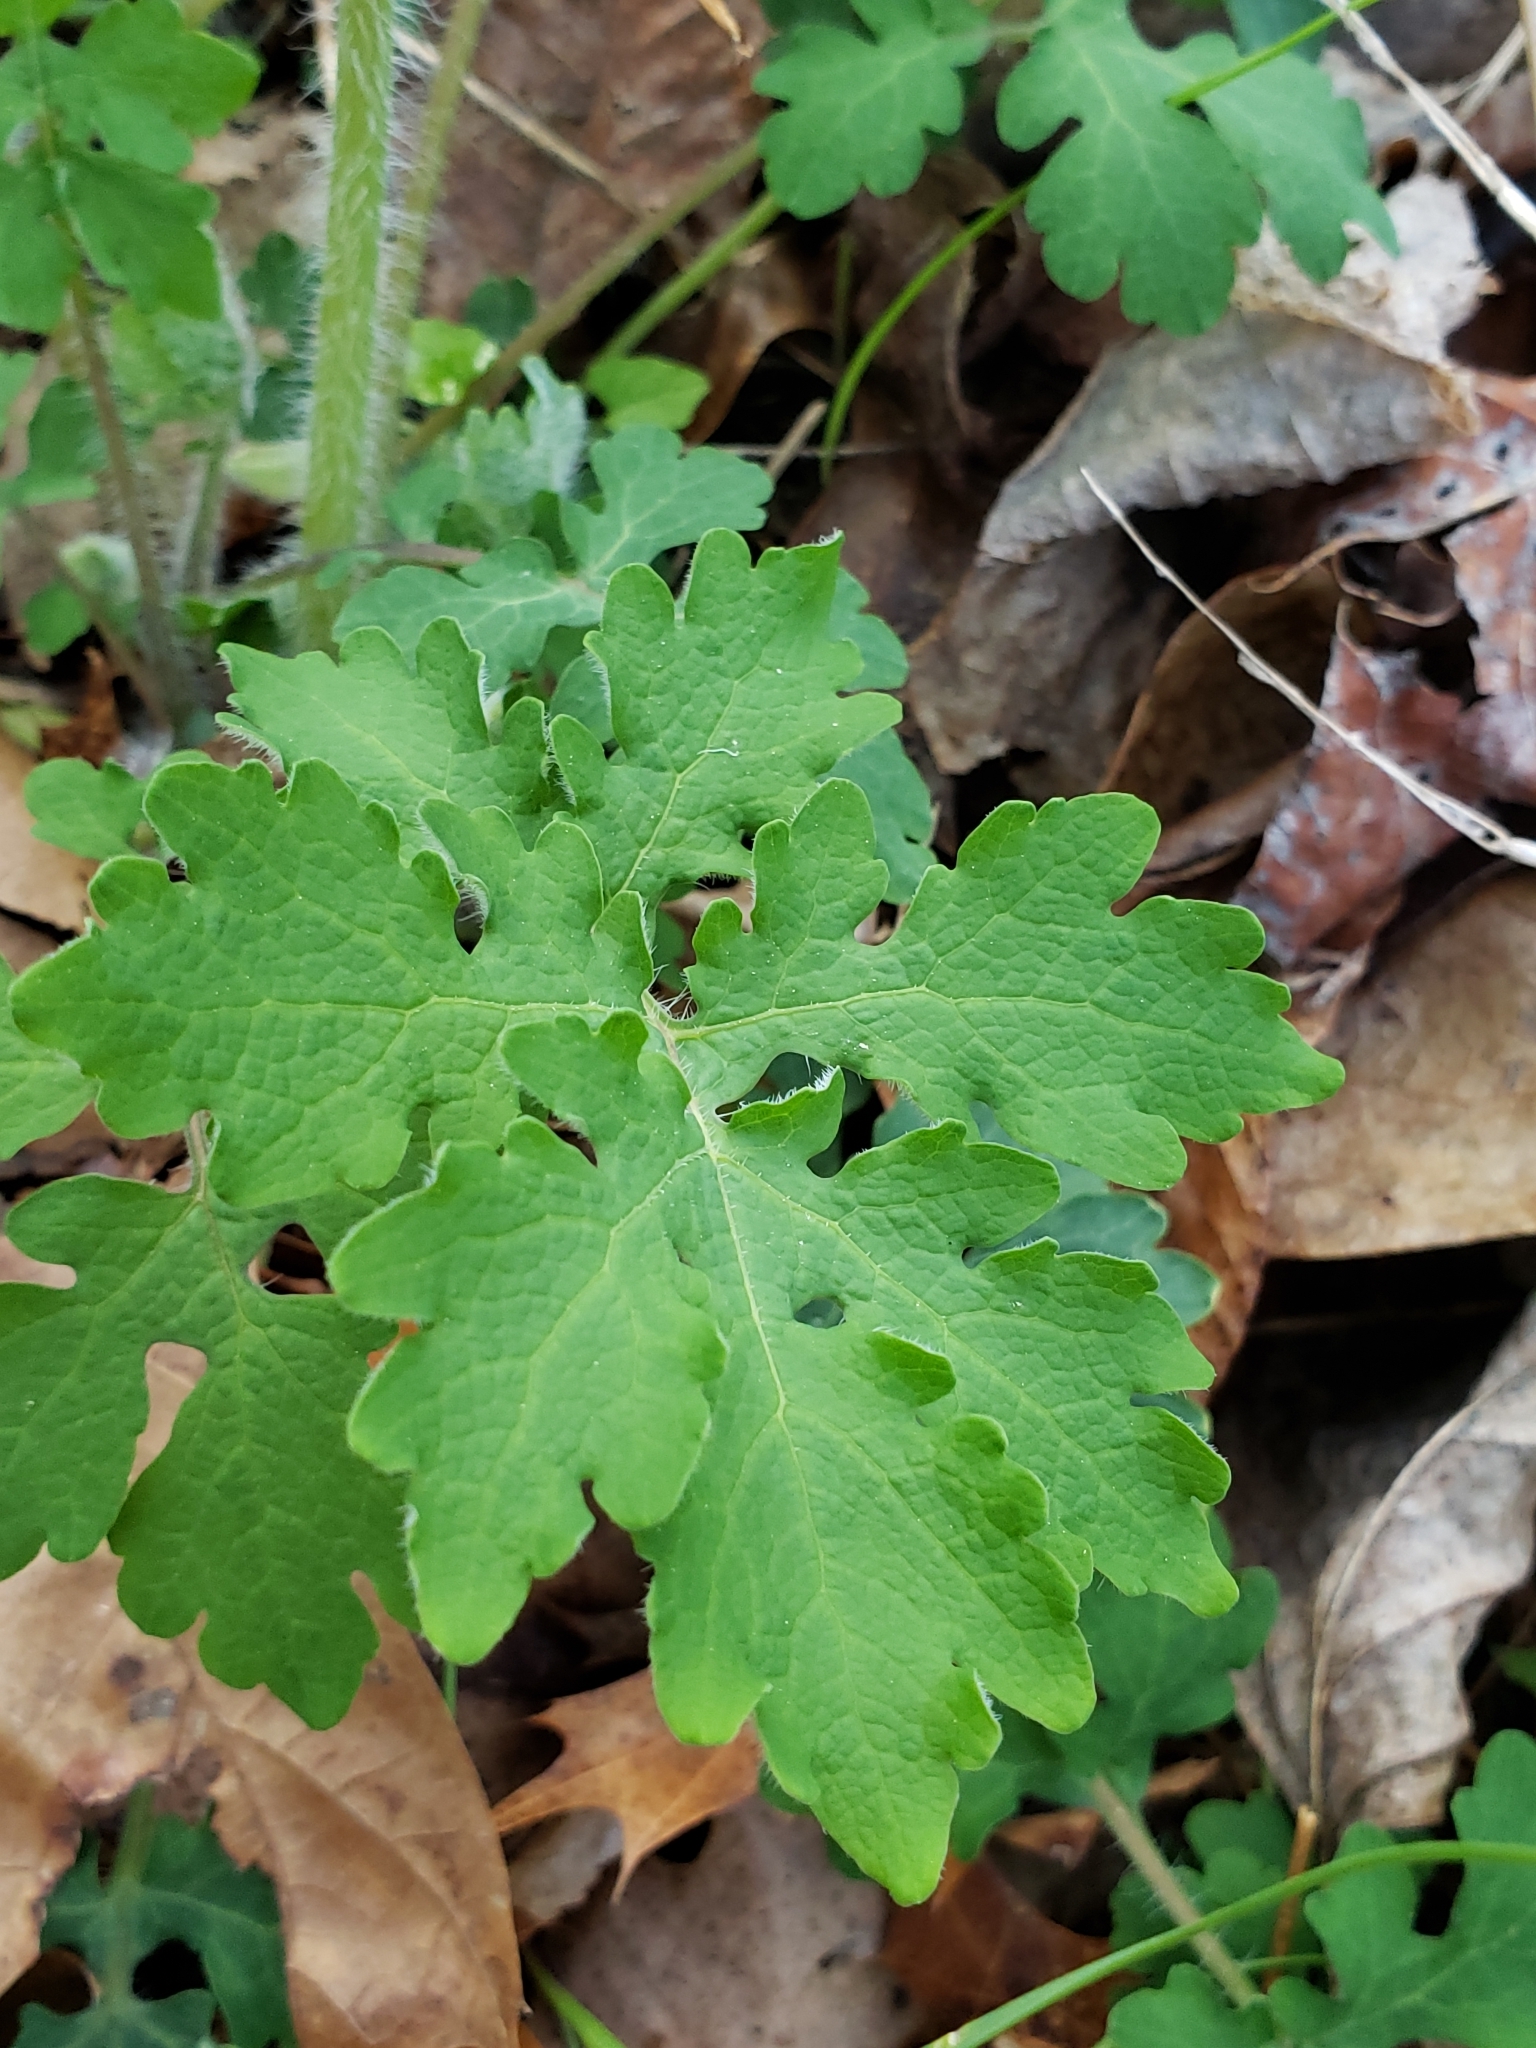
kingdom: Plantae
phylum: Tracheophyta
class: Magnoliopsida
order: Ranunculales
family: Papaveraceae
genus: Stylophorum
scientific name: Stylophorum diphyllum
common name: Celandine poppy
